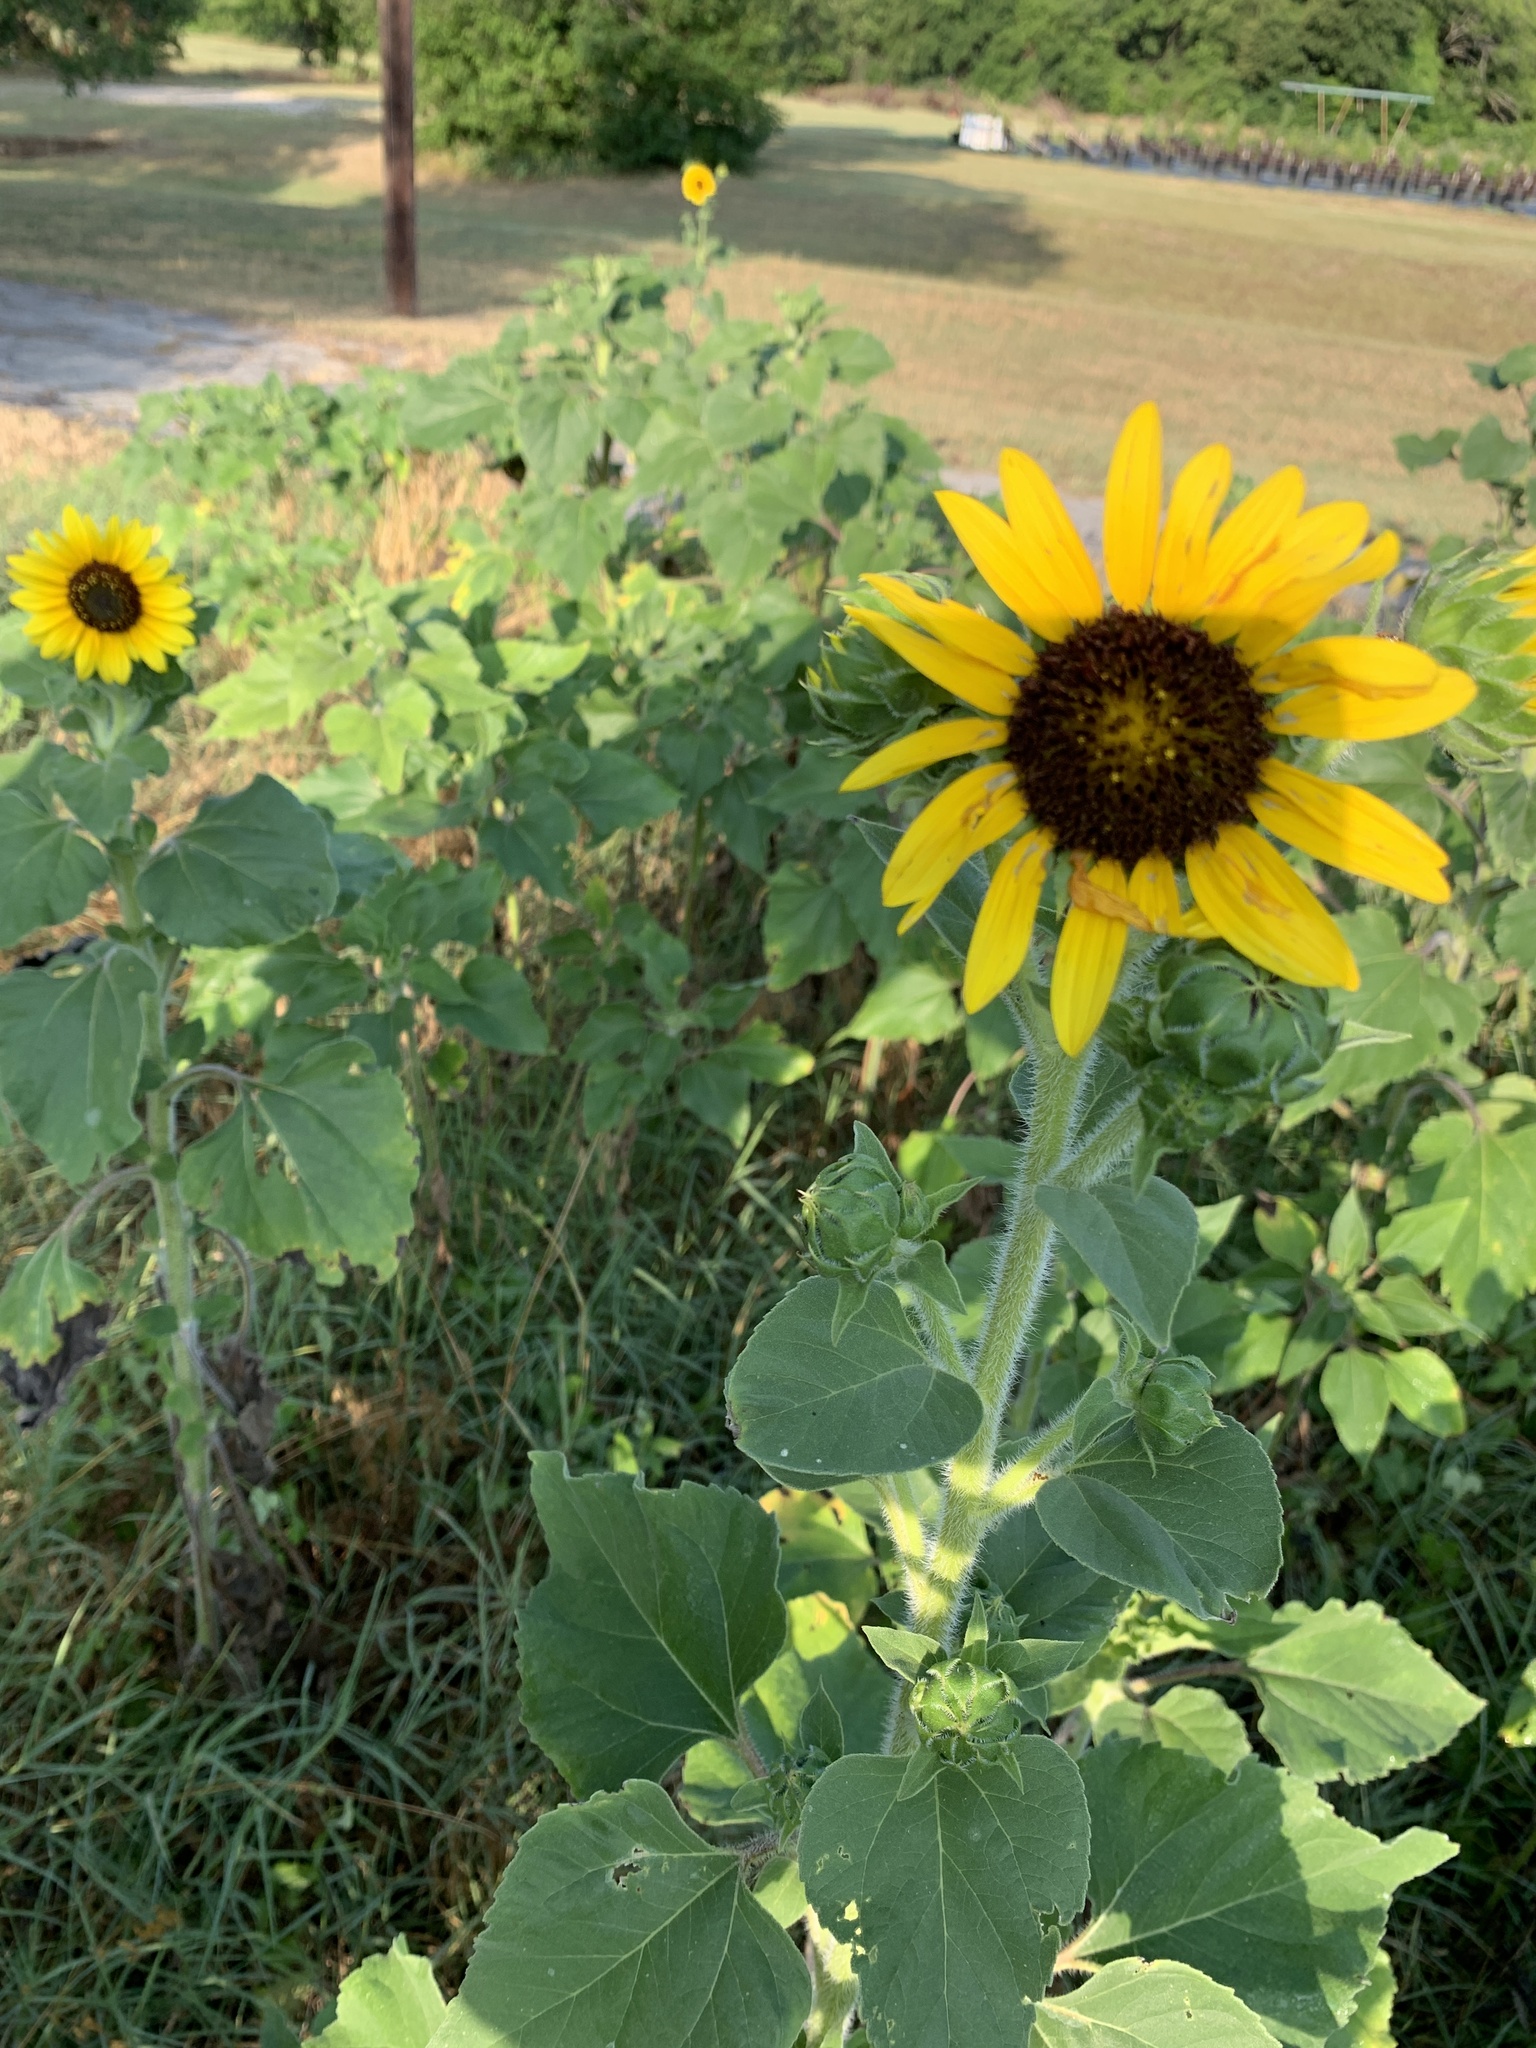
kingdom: Plantae
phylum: Tracheophyta
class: Magnoliopsida
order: Asterales
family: Asteraceae
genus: Helianthus
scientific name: Helianthus annuus
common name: Sunflower
